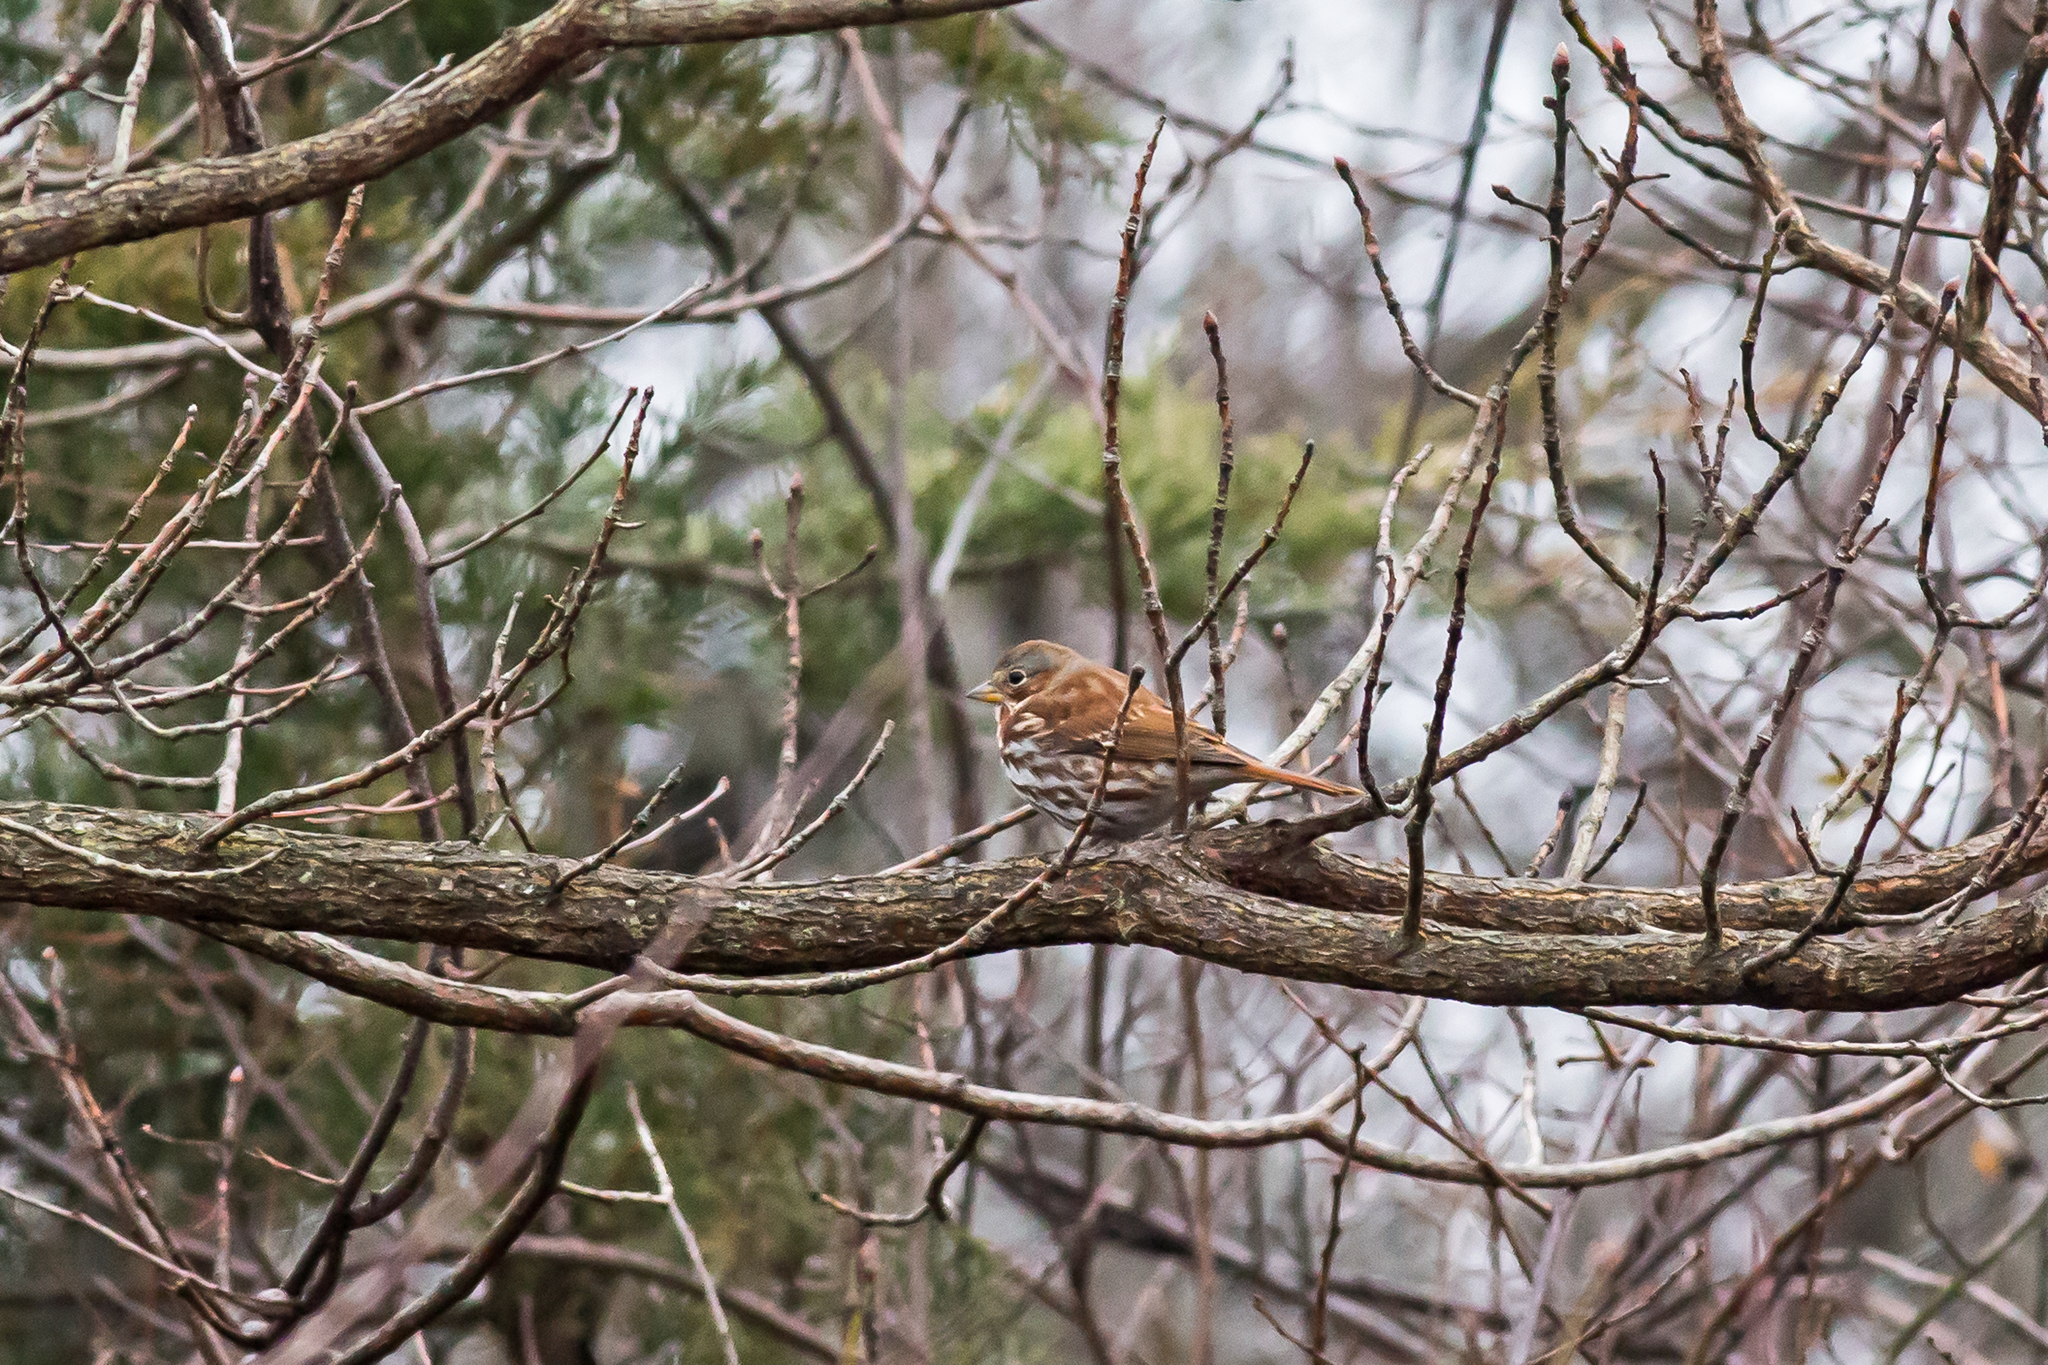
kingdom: Animalia
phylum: Chordata
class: Aves
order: Passeriformes
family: Passerellidae
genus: Passerella
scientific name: Passerella iliaca
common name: Fox sparrow
